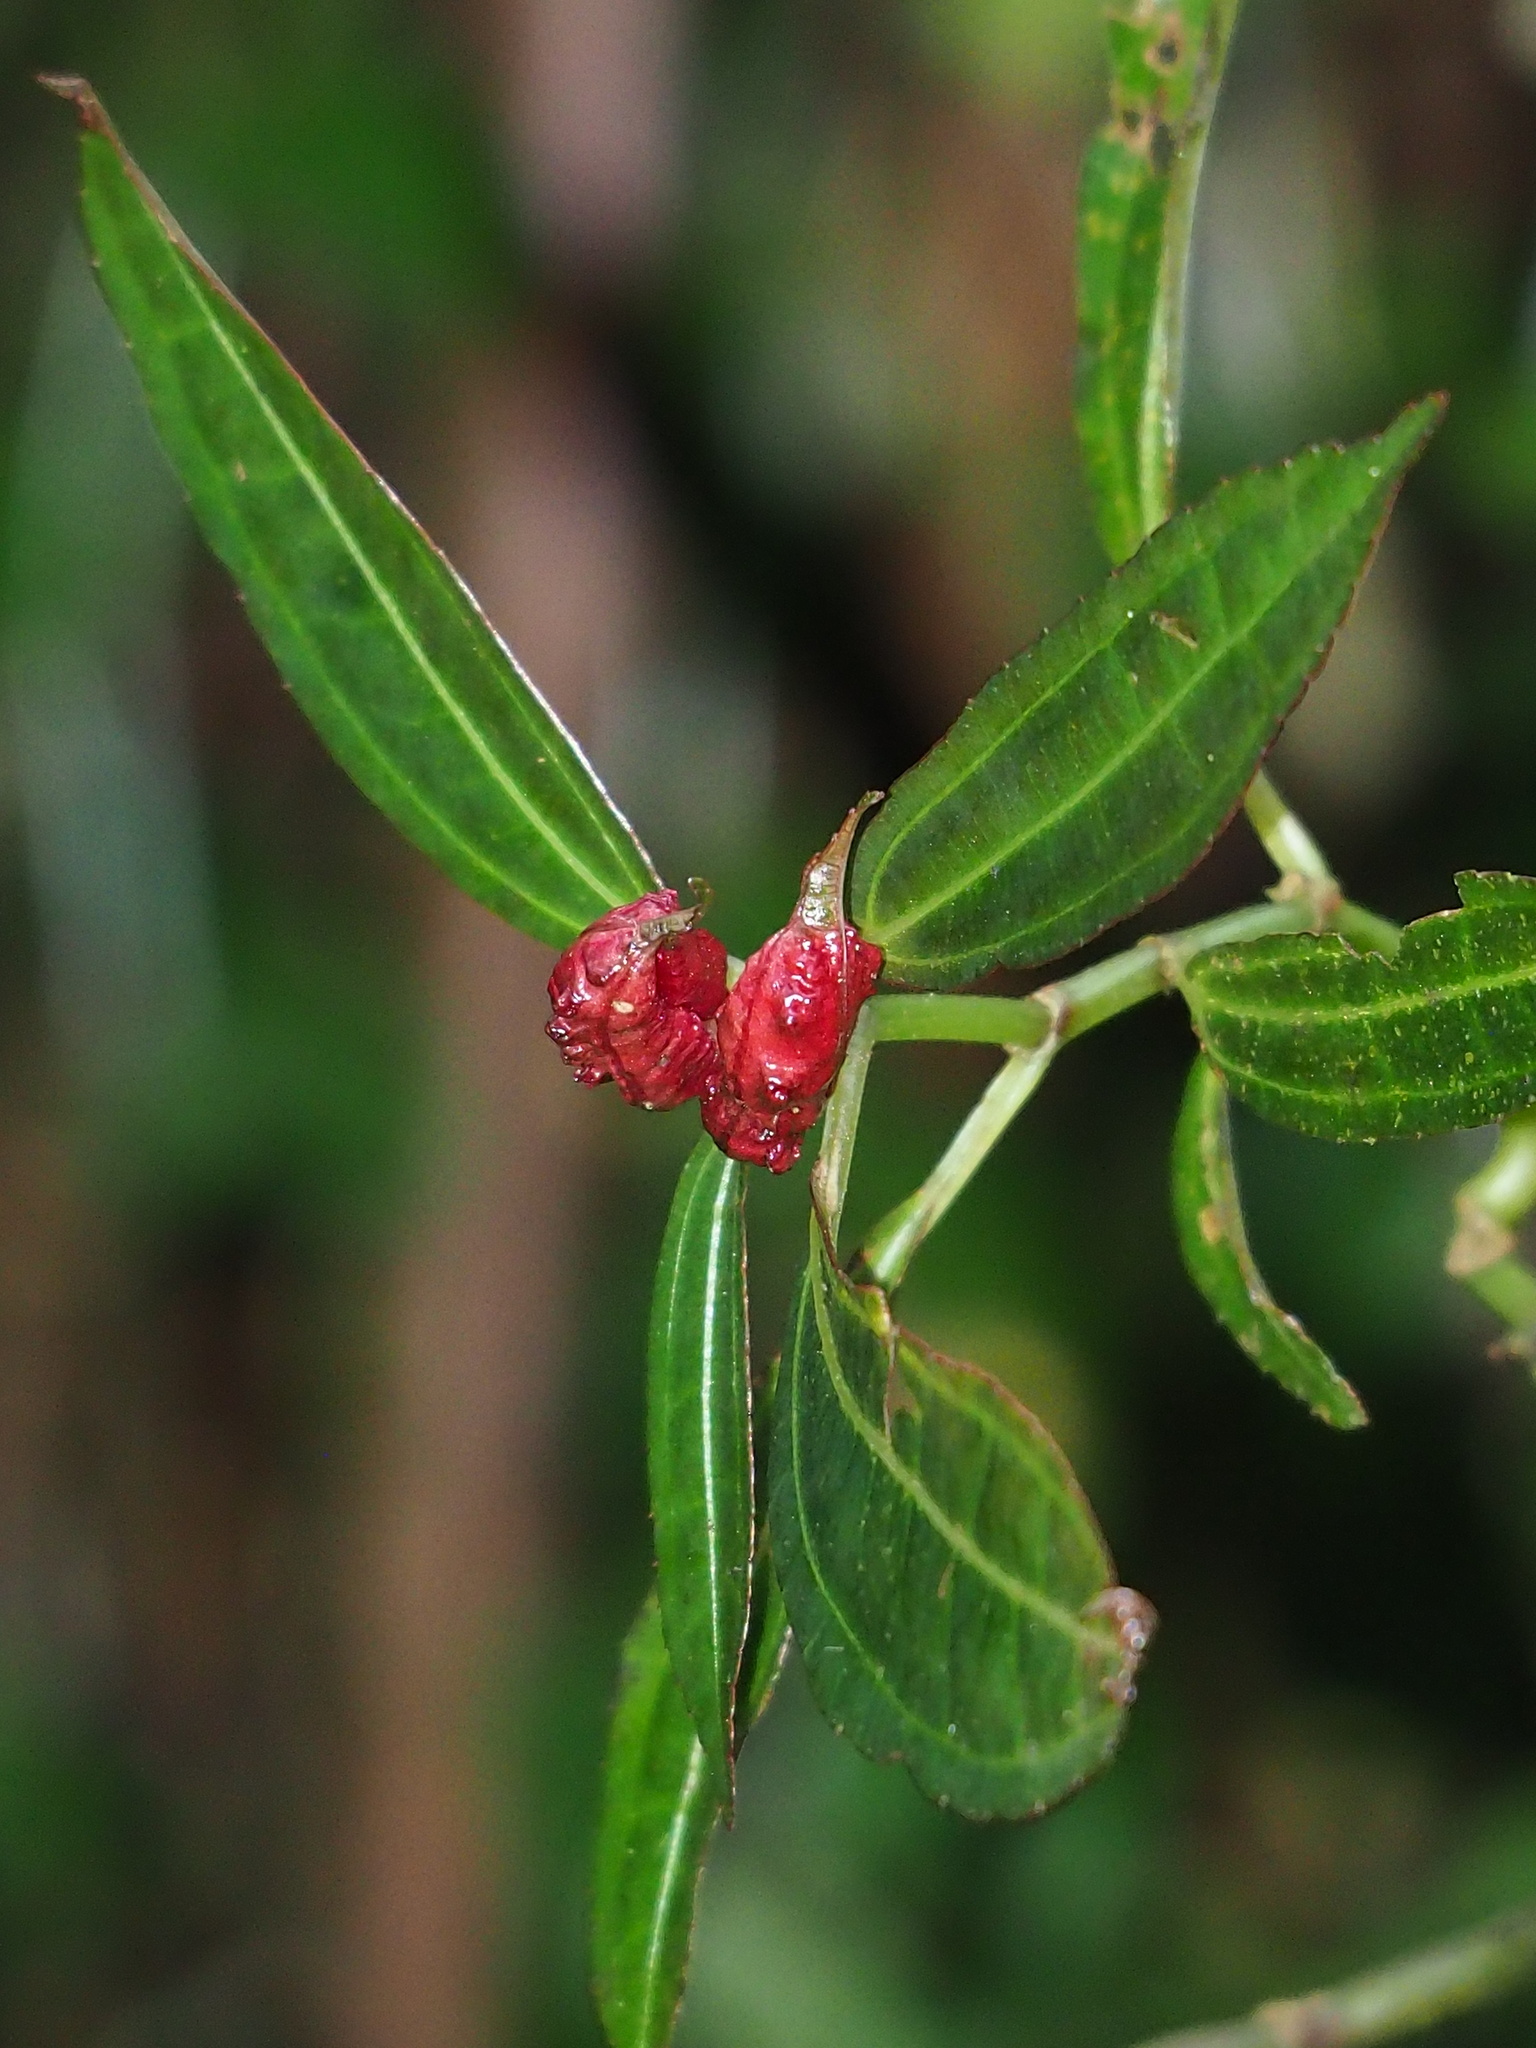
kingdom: Plantae
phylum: Tracheophyta
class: Magnoliopsida
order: Rosales
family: Urticaceae
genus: Pilea
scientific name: Pilea rotundinucula
